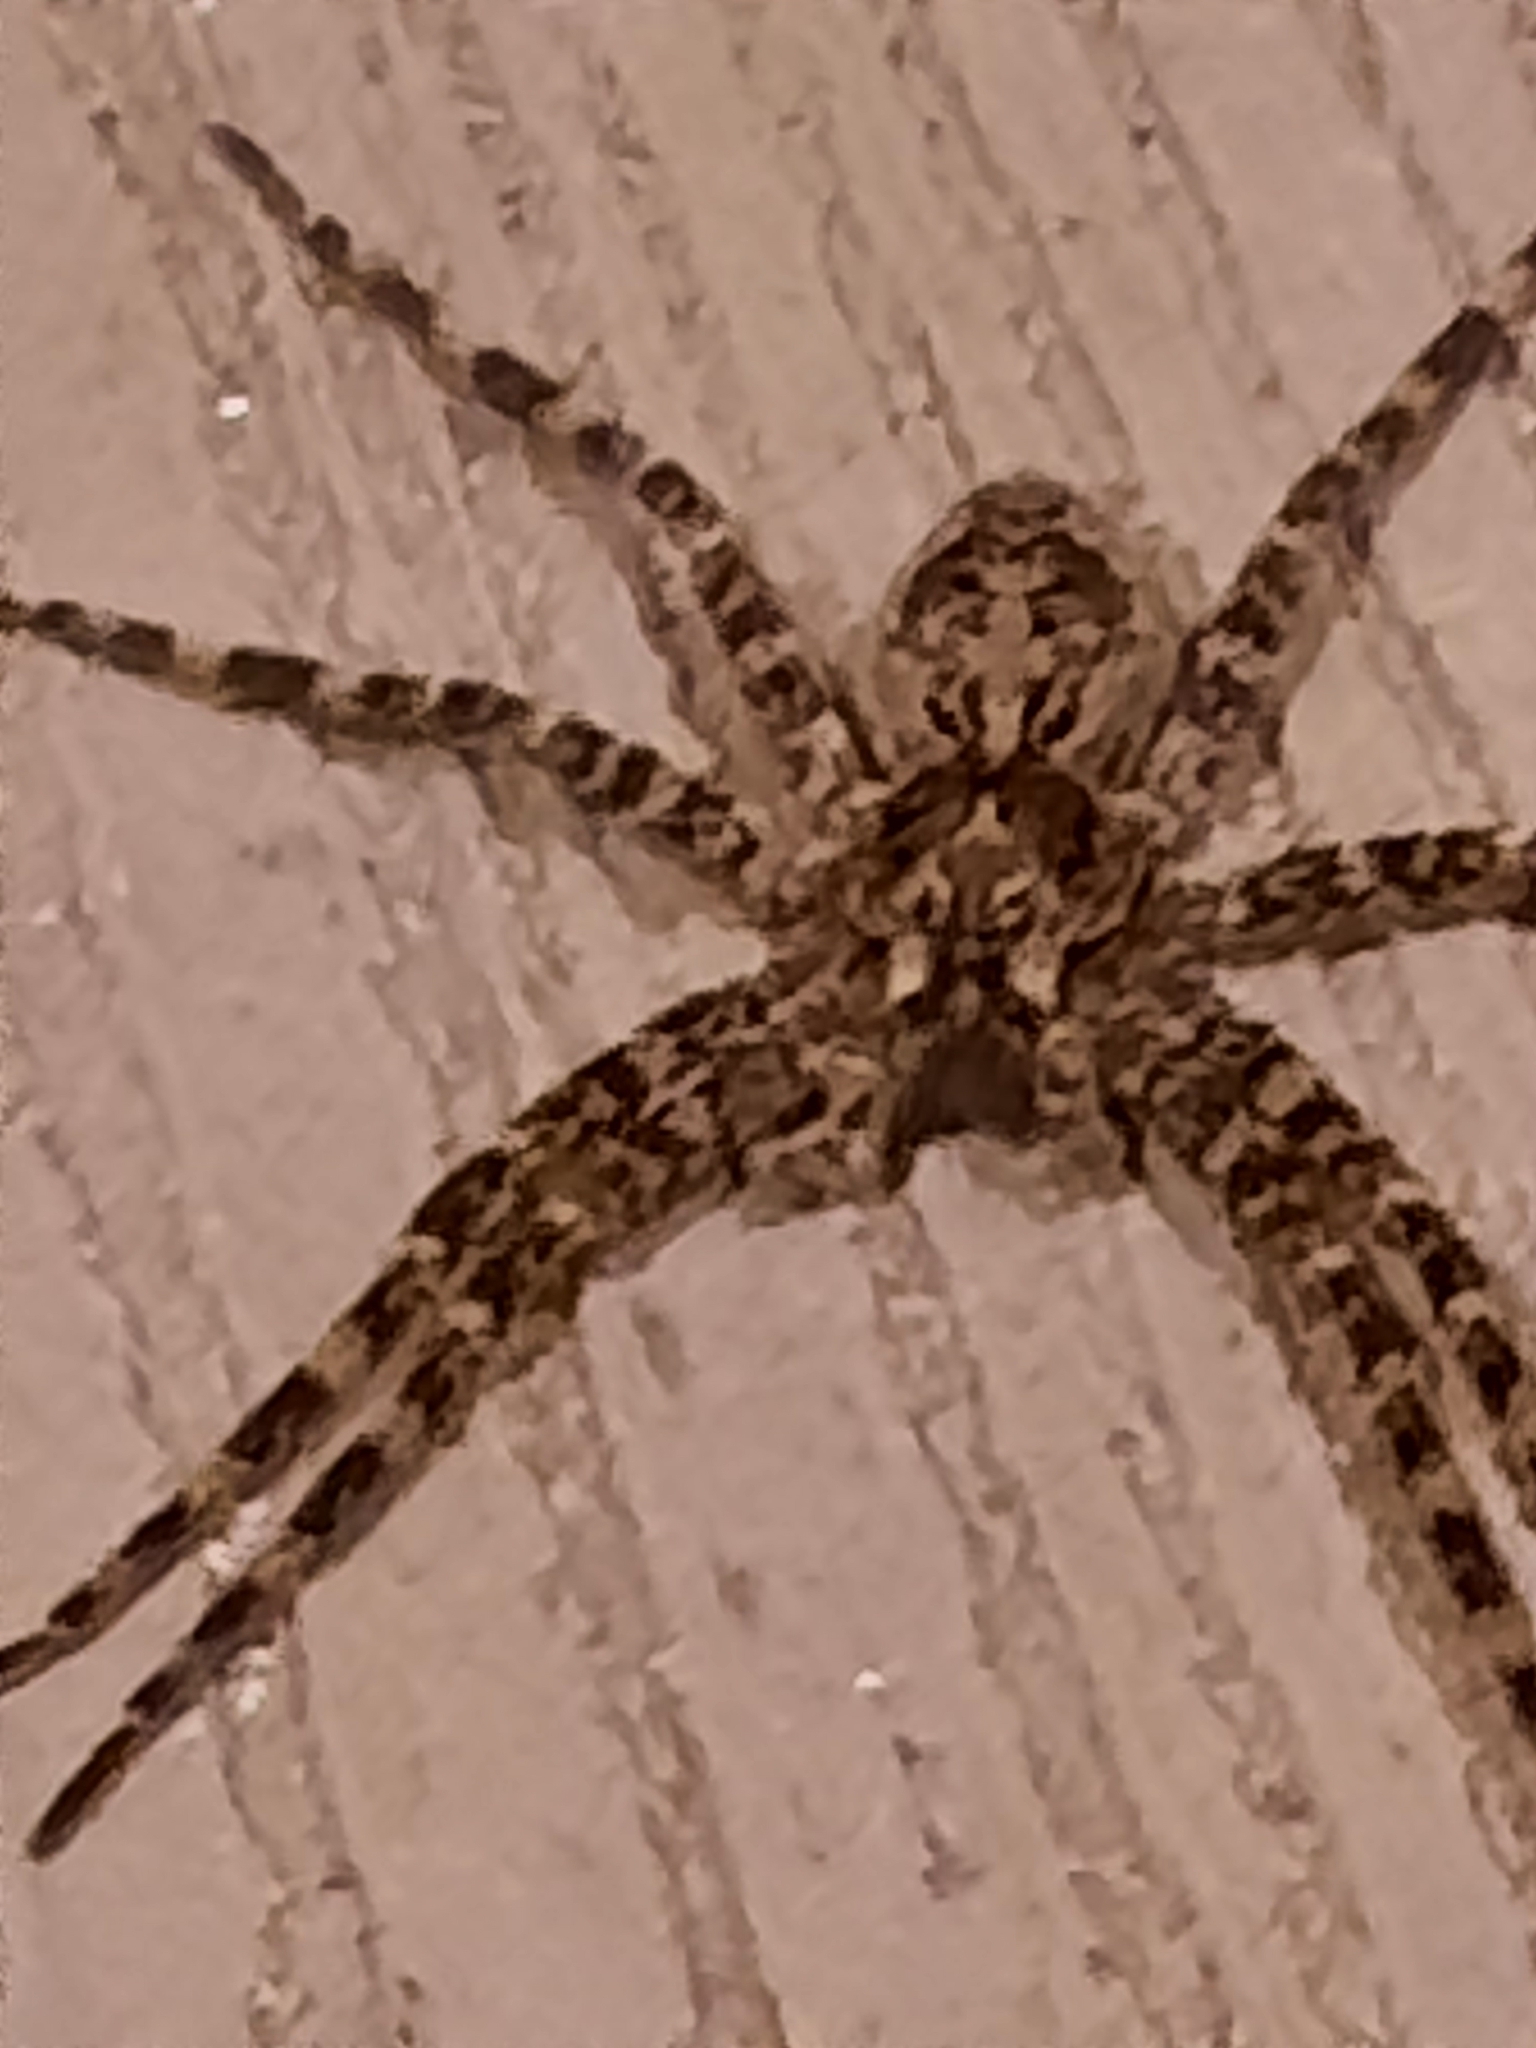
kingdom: Animalia
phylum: Arthropoda
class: Arachnida
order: Araneae
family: Pisauridae
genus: Dolomedes
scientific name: Dolomedes tenebrosus
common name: Dark fishing spider
